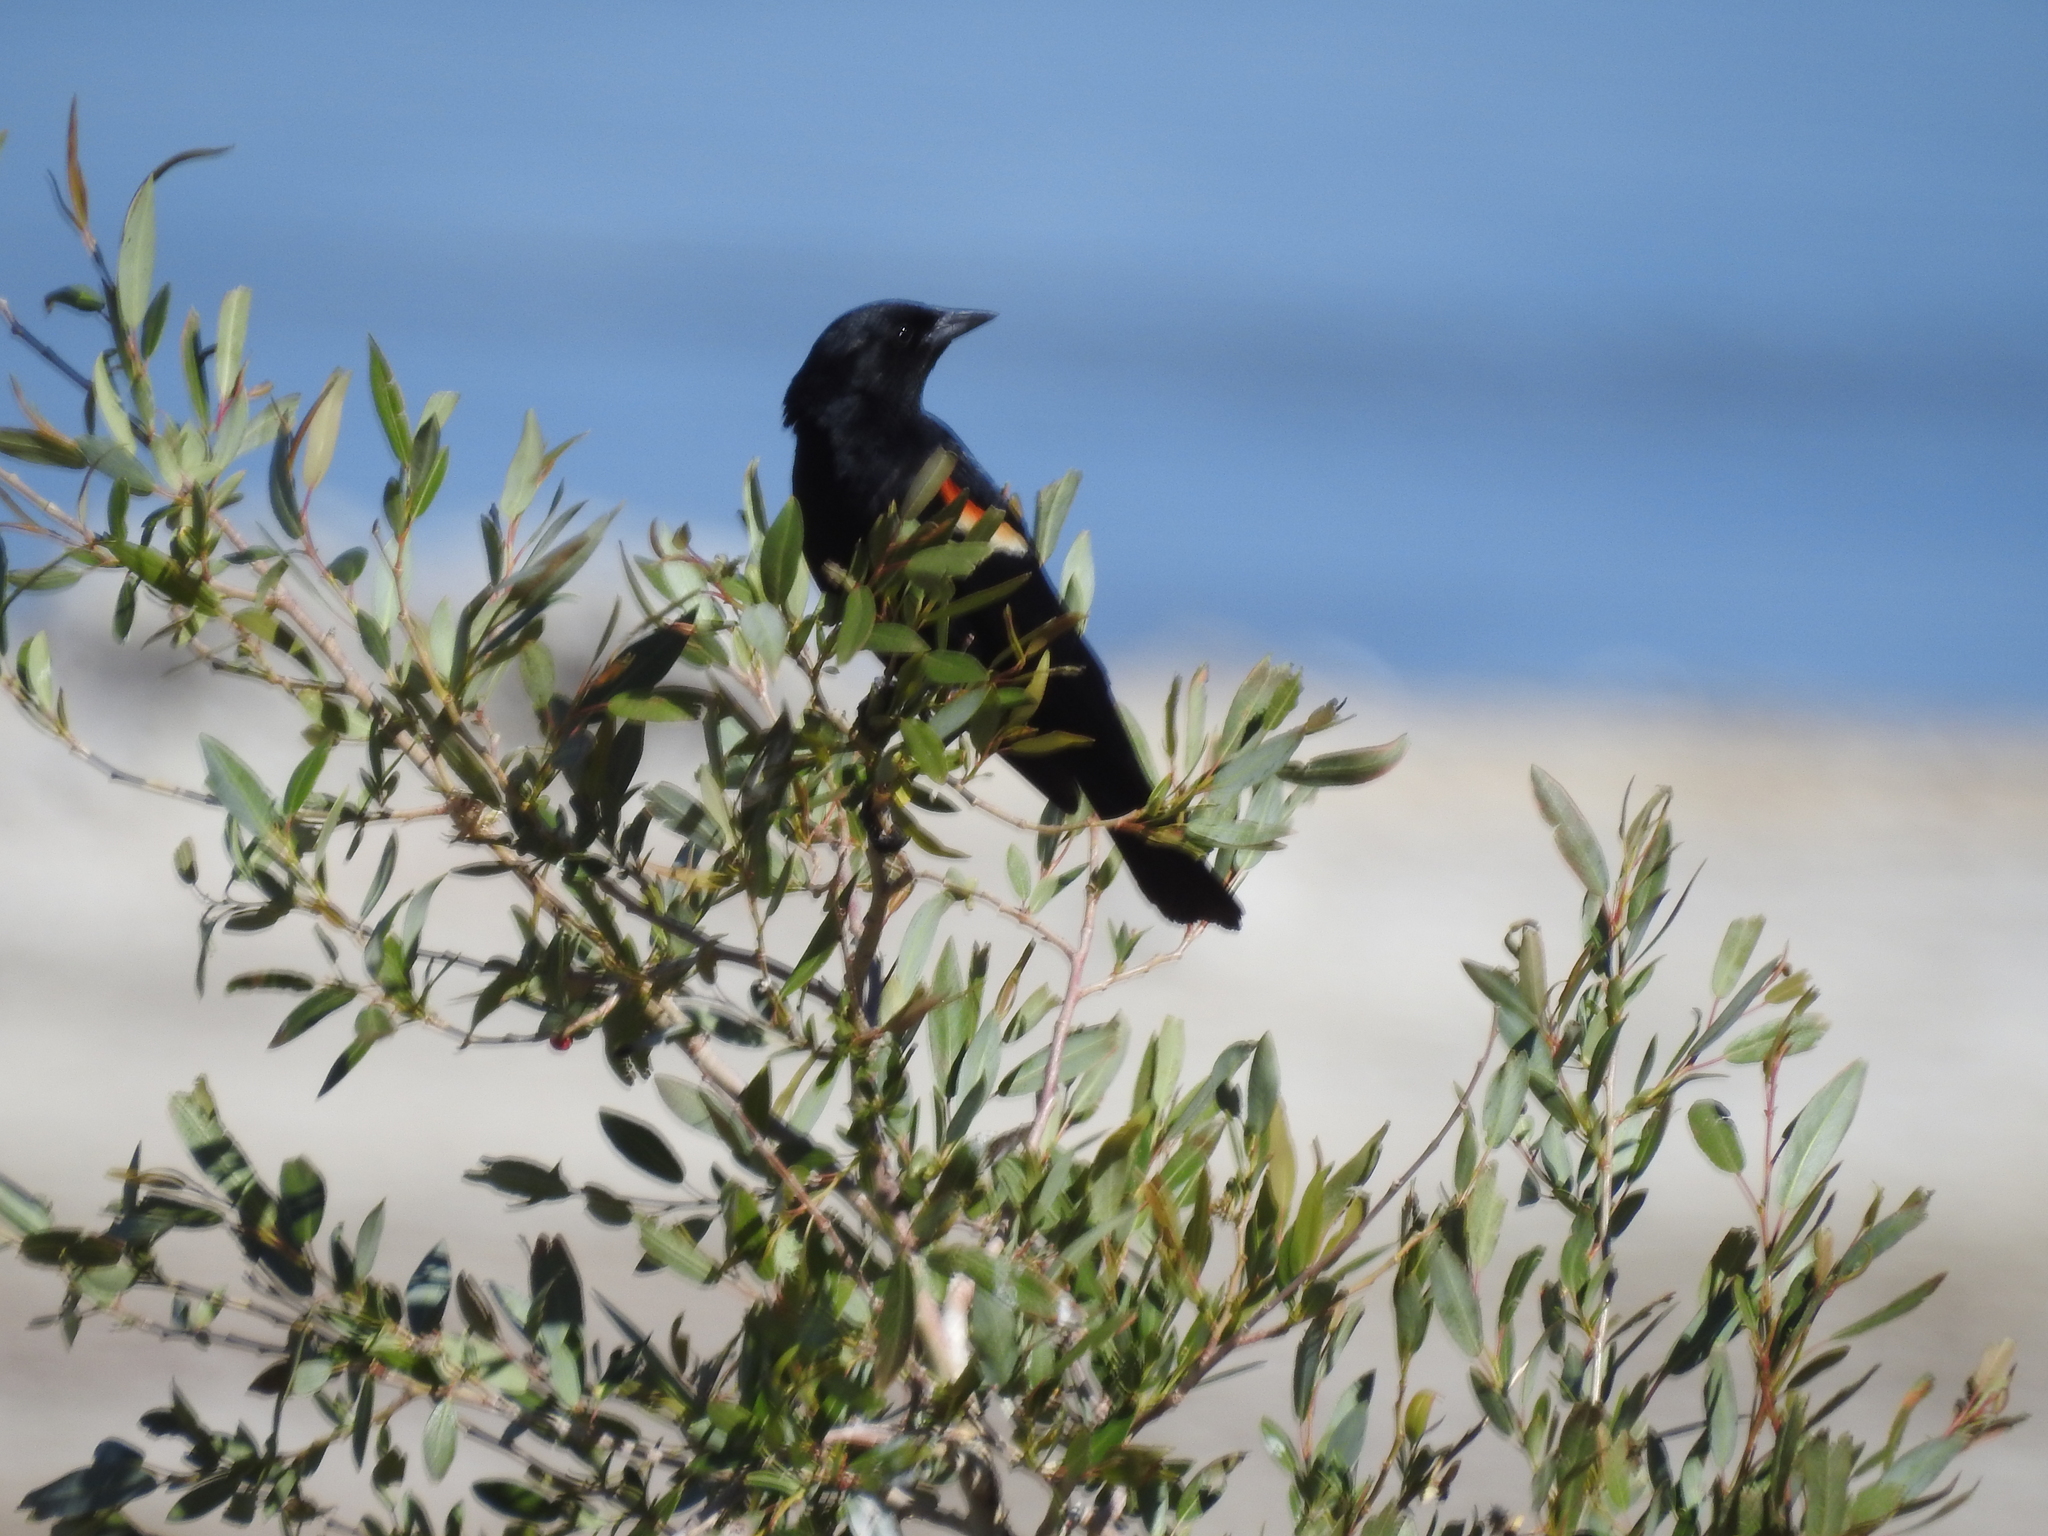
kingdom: Animalia
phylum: Chordata
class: Aves
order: Passeriformes
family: Icteridae
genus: Agelaius
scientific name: Agelaius phoeniceus
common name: Red-winged blackbird
